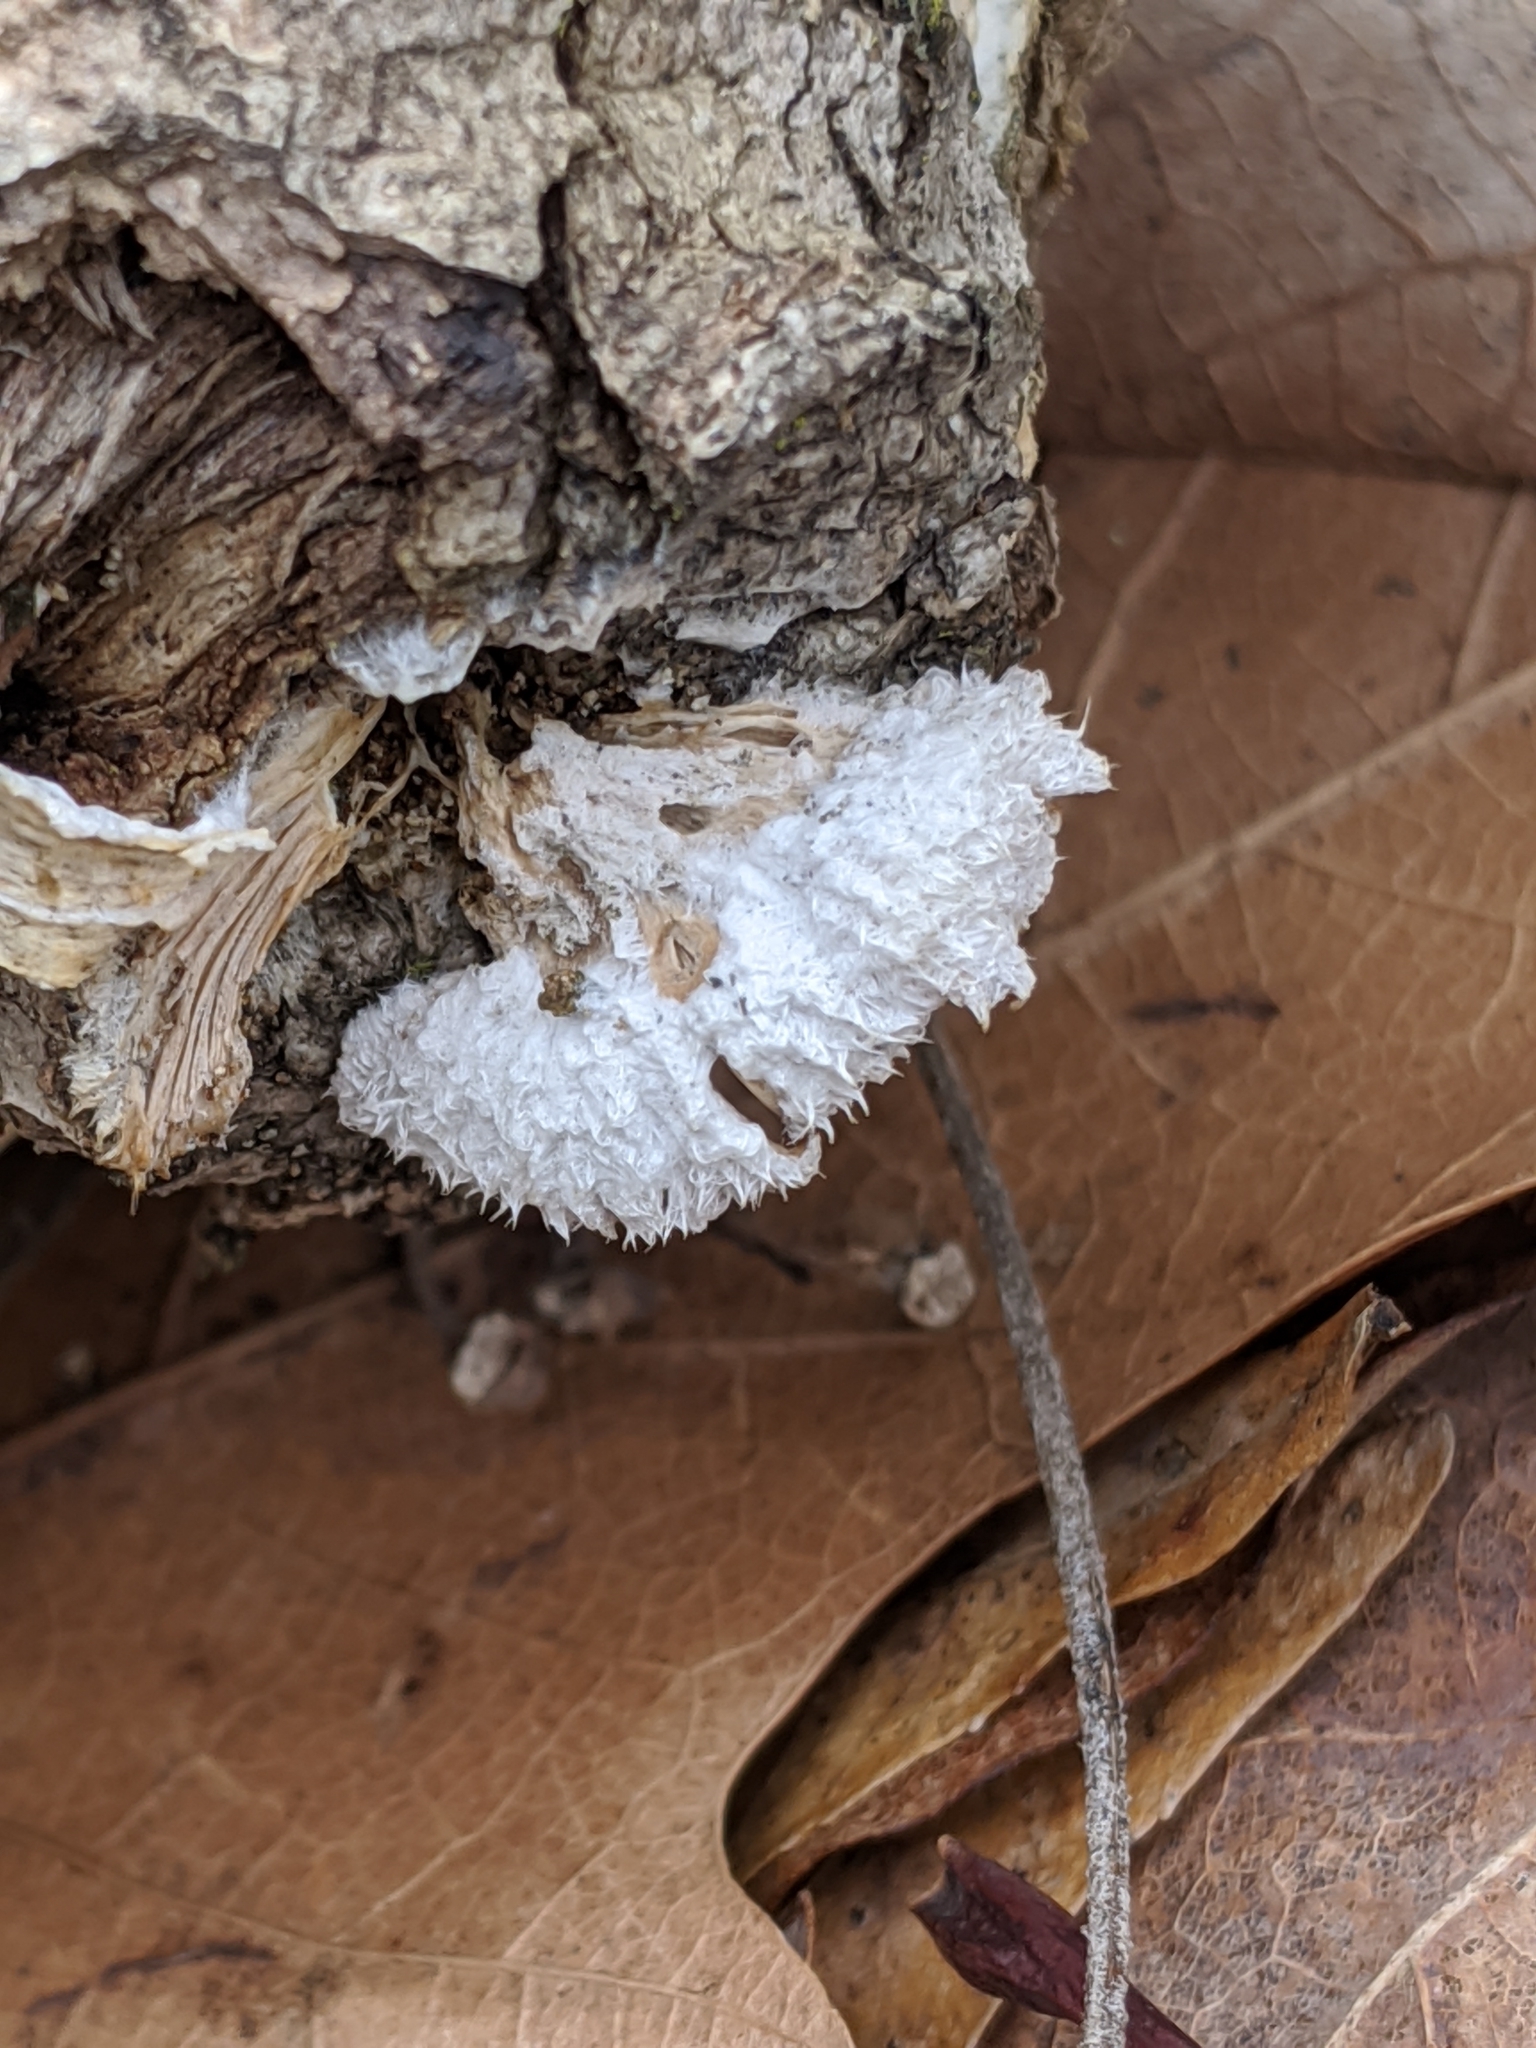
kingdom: Fungi
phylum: Basidiomycota
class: Agaricomycetes
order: Agaricales
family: Schizophyllaceae
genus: Schizophyllum
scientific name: Schizophyllum commune
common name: Common porecrust
